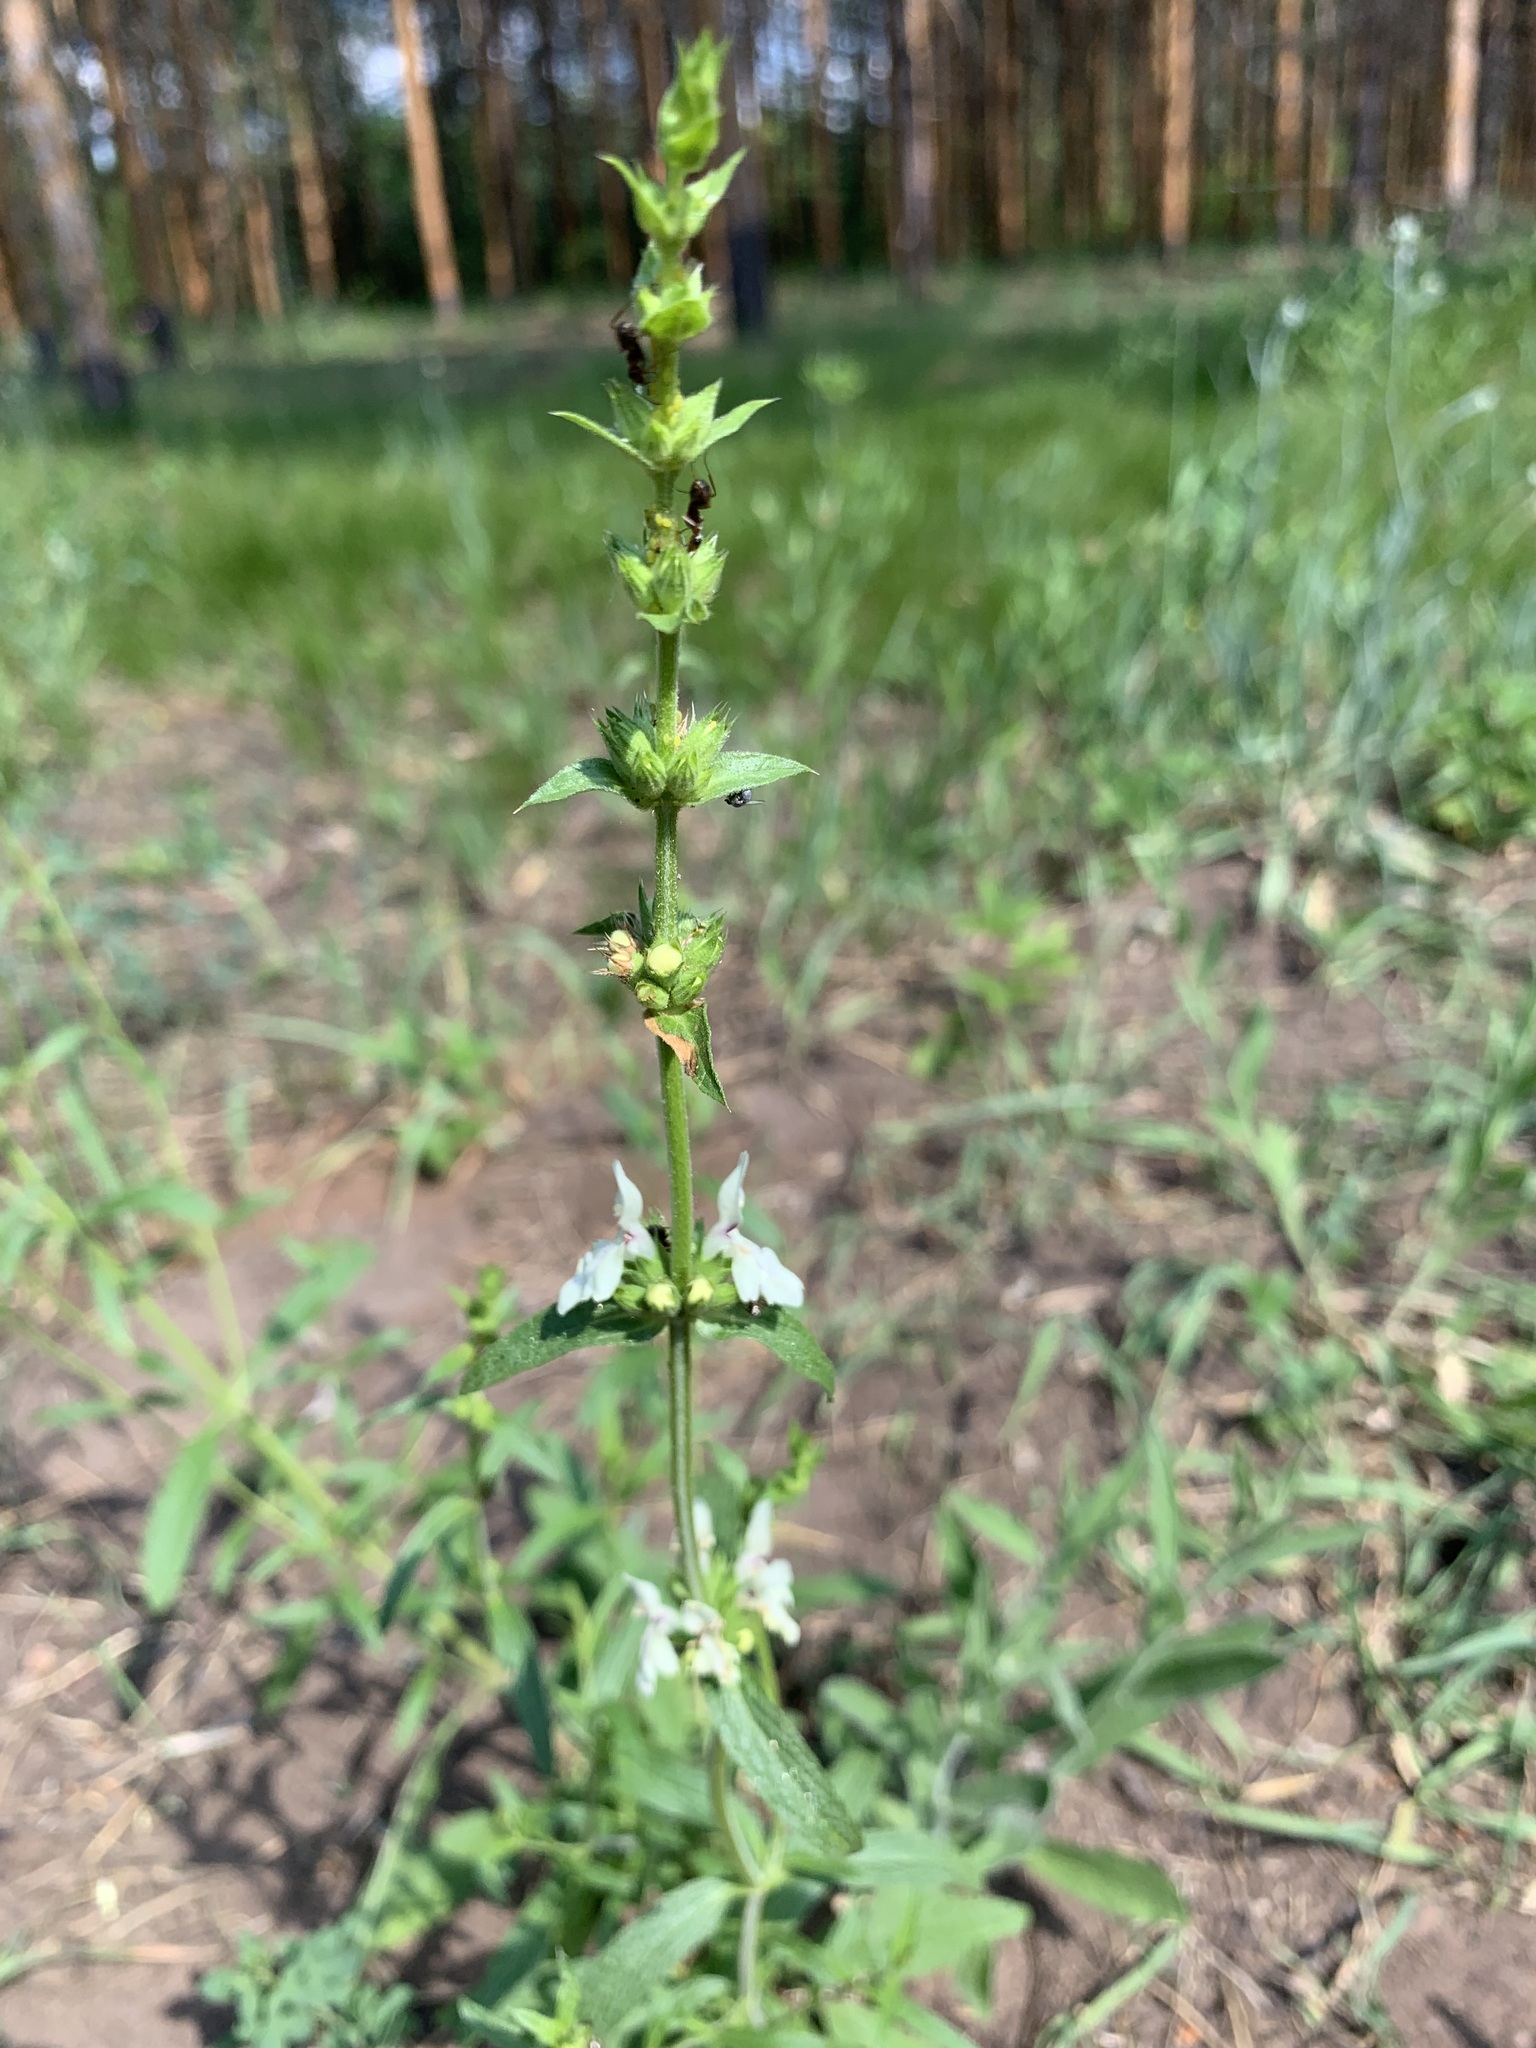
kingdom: Plantae
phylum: Tracheophyta
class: Magnoliopsida
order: Lamiales
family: Lamiaceae
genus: Stachys
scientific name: Stachys recta
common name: Perennial yellow-woundwort
